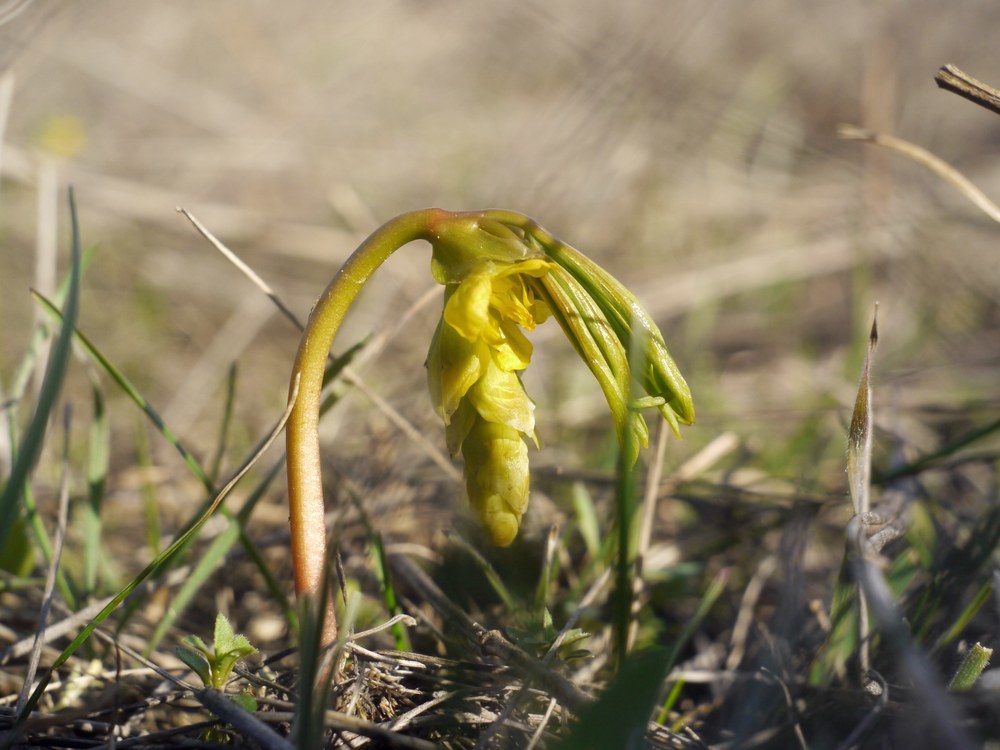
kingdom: Plantae
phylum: Tracheophyta
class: Magnoliopsida
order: Ranunculales
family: Berberidaceae
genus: Gymnospermium
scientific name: Gymnospermium odessanum
